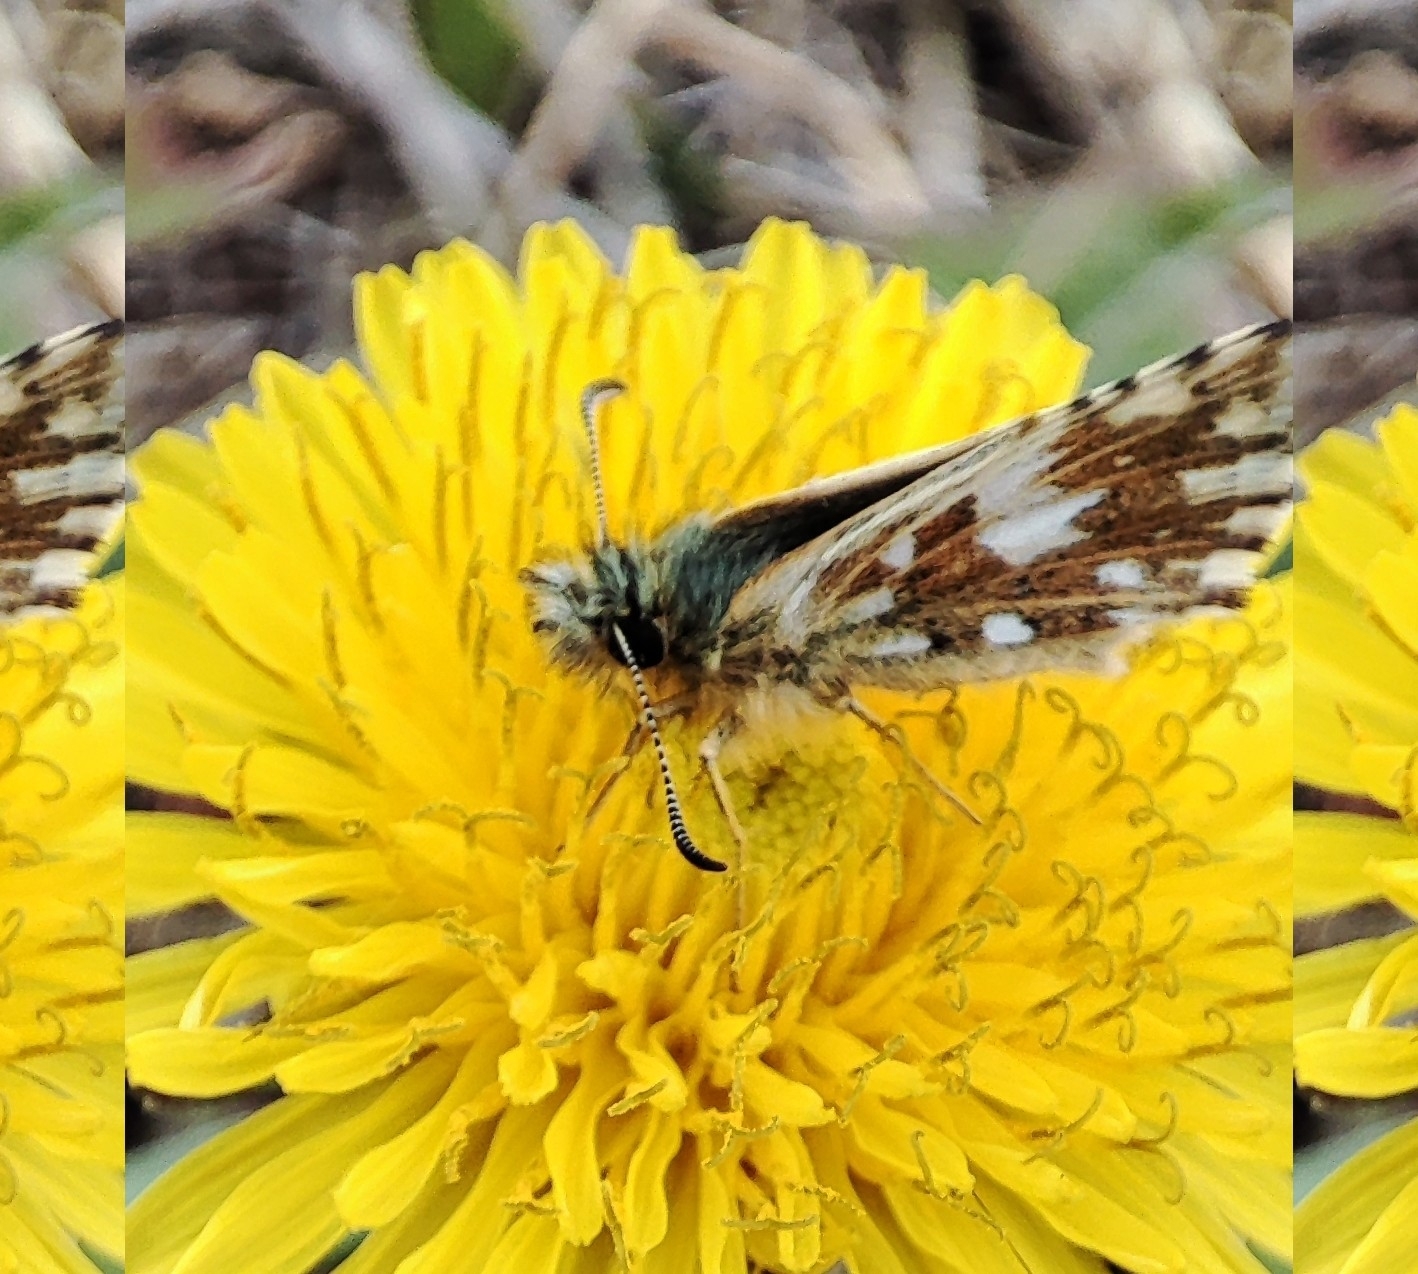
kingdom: Animalia
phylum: Arthropoda
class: Insecta
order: Lepidoptera
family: Hesperiidae
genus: Pyrgus
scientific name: Pyrgus malvae
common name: Grizzled skipper
